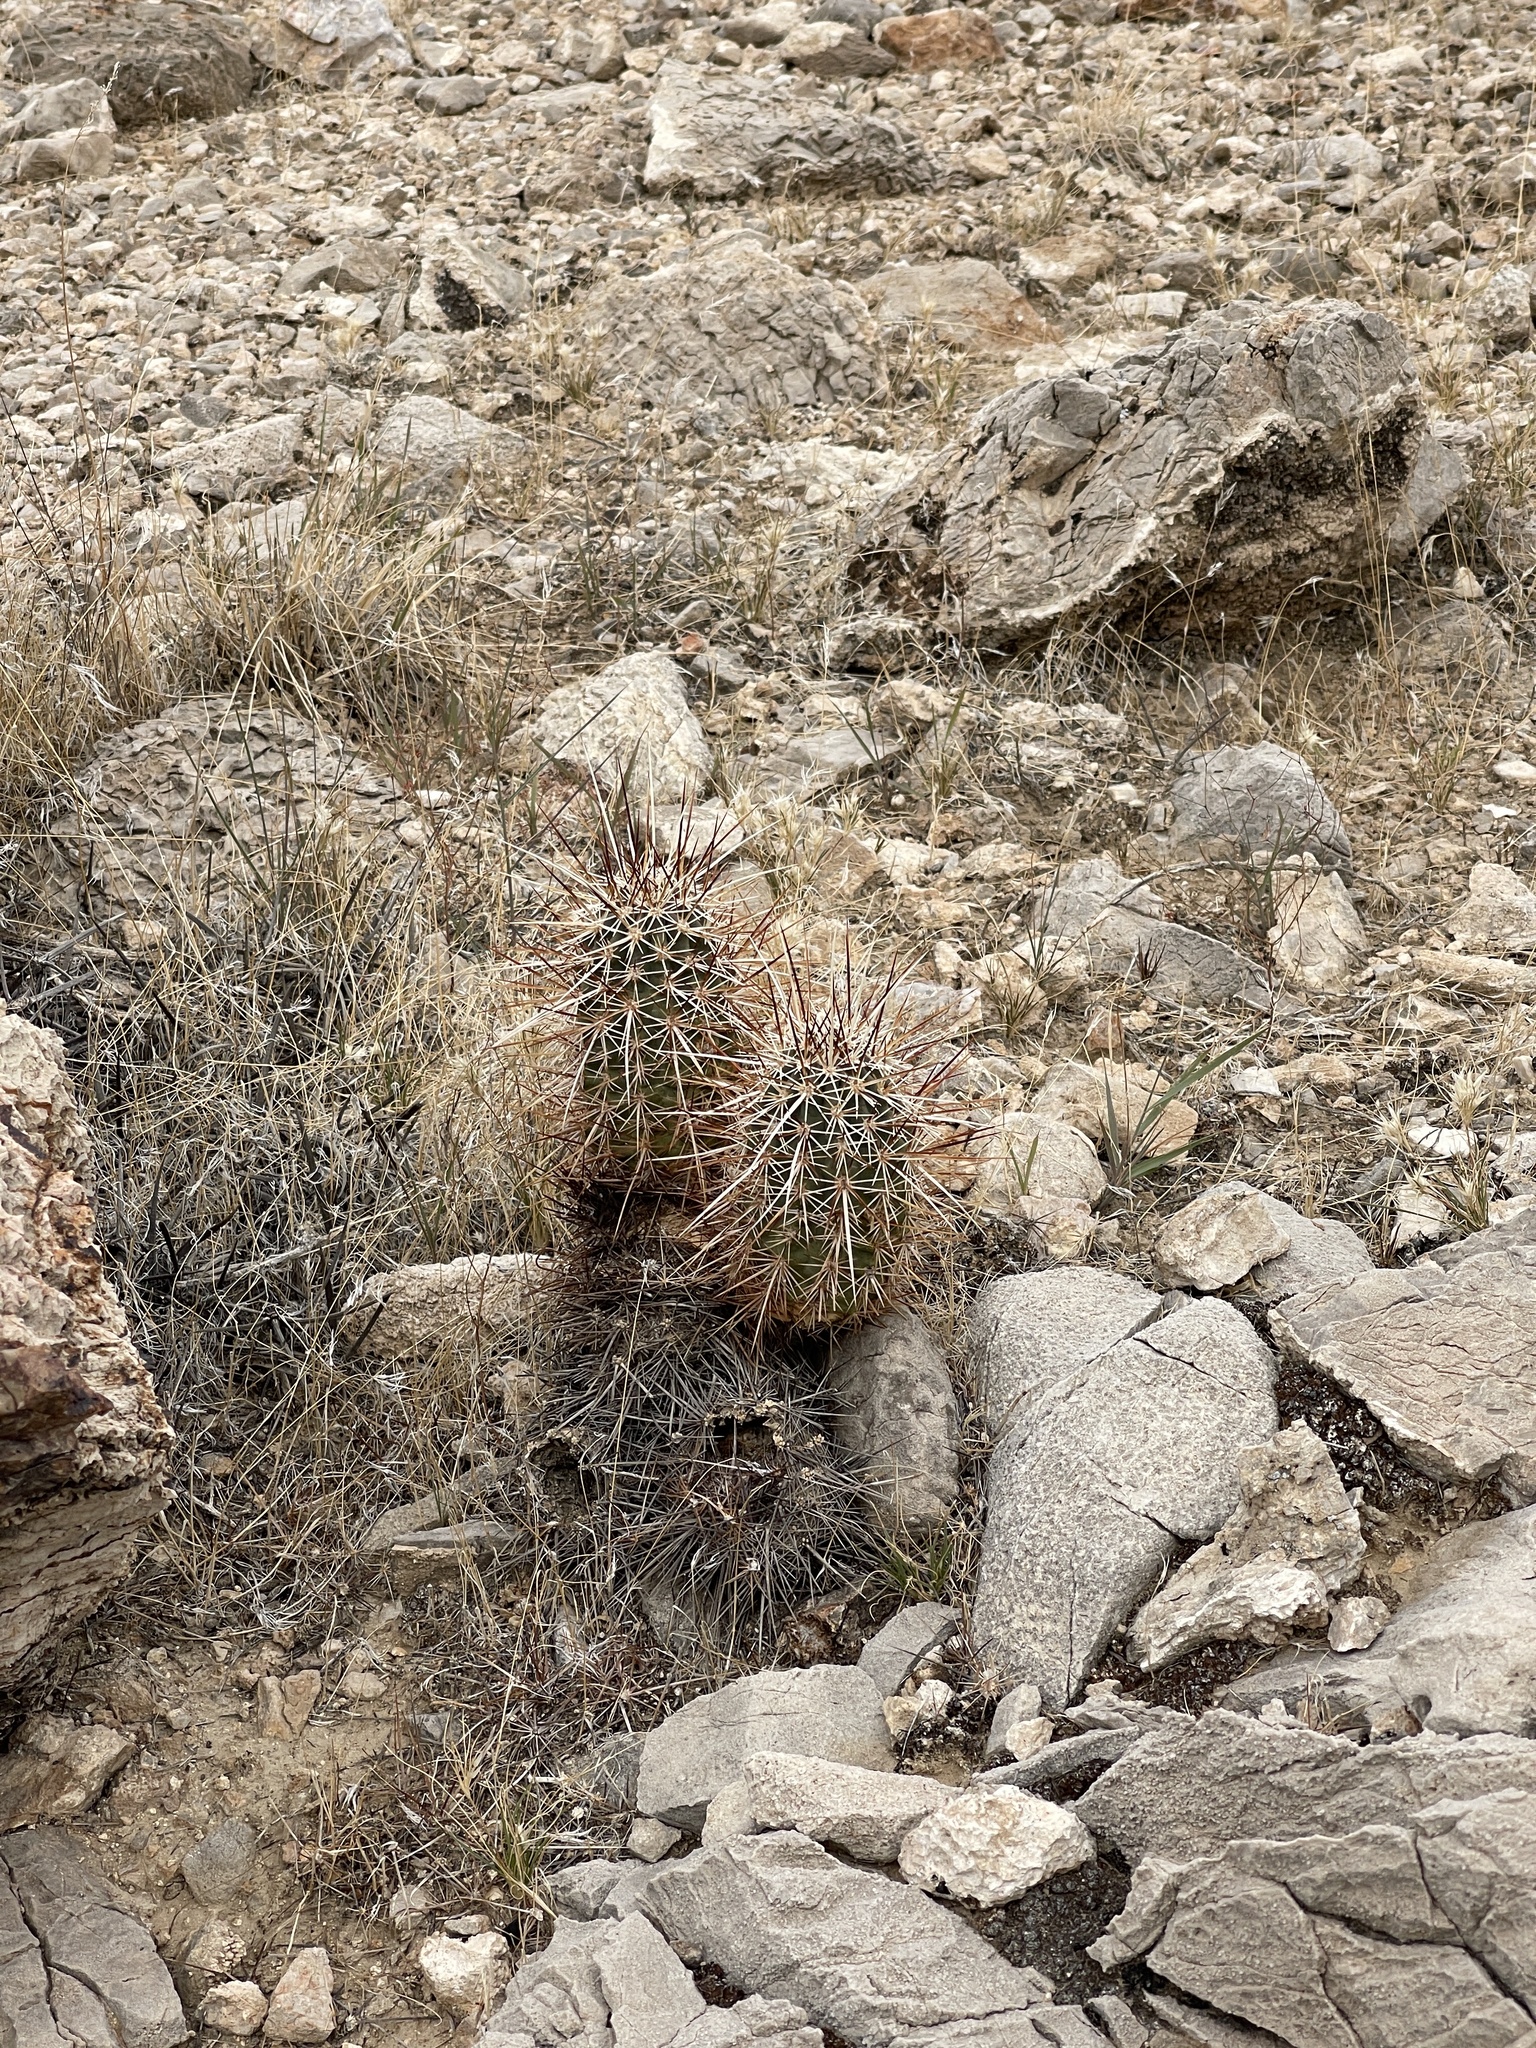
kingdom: Plantae
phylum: Tracheophyta
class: Magnoliopsida
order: Caryophyllales
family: Cactaceae
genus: Echinocereus
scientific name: Echinocereus engelmannii
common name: Engelmann's hedgehog cactus
